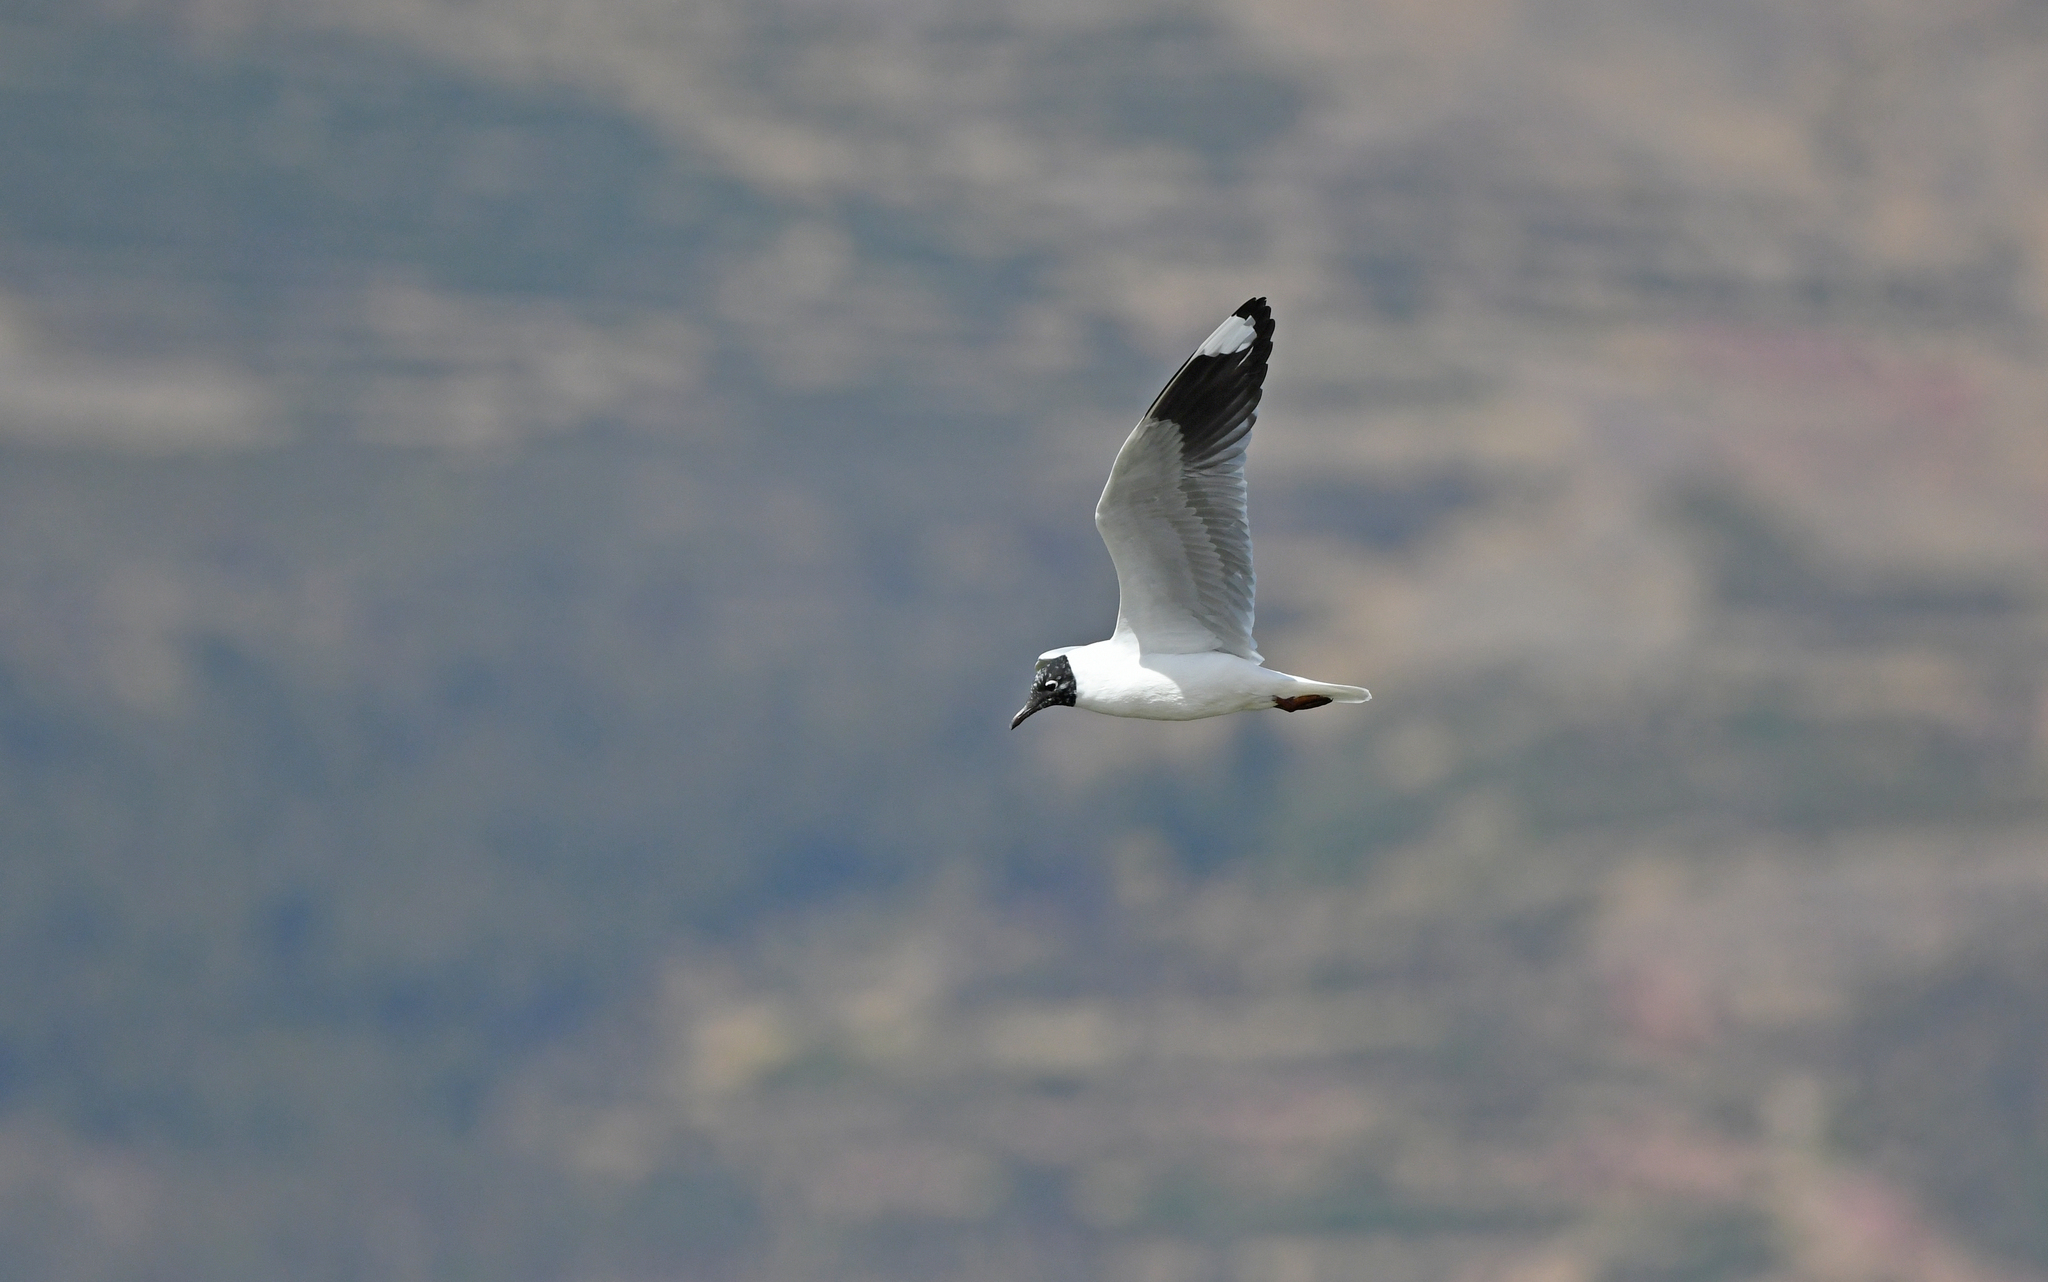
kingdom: Animalia
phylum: Chordata
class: Aves
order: Charadriiformes
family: Laridae
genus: Chroicocephalus
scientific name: Chroicocephalus serranus
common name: Andean gull
